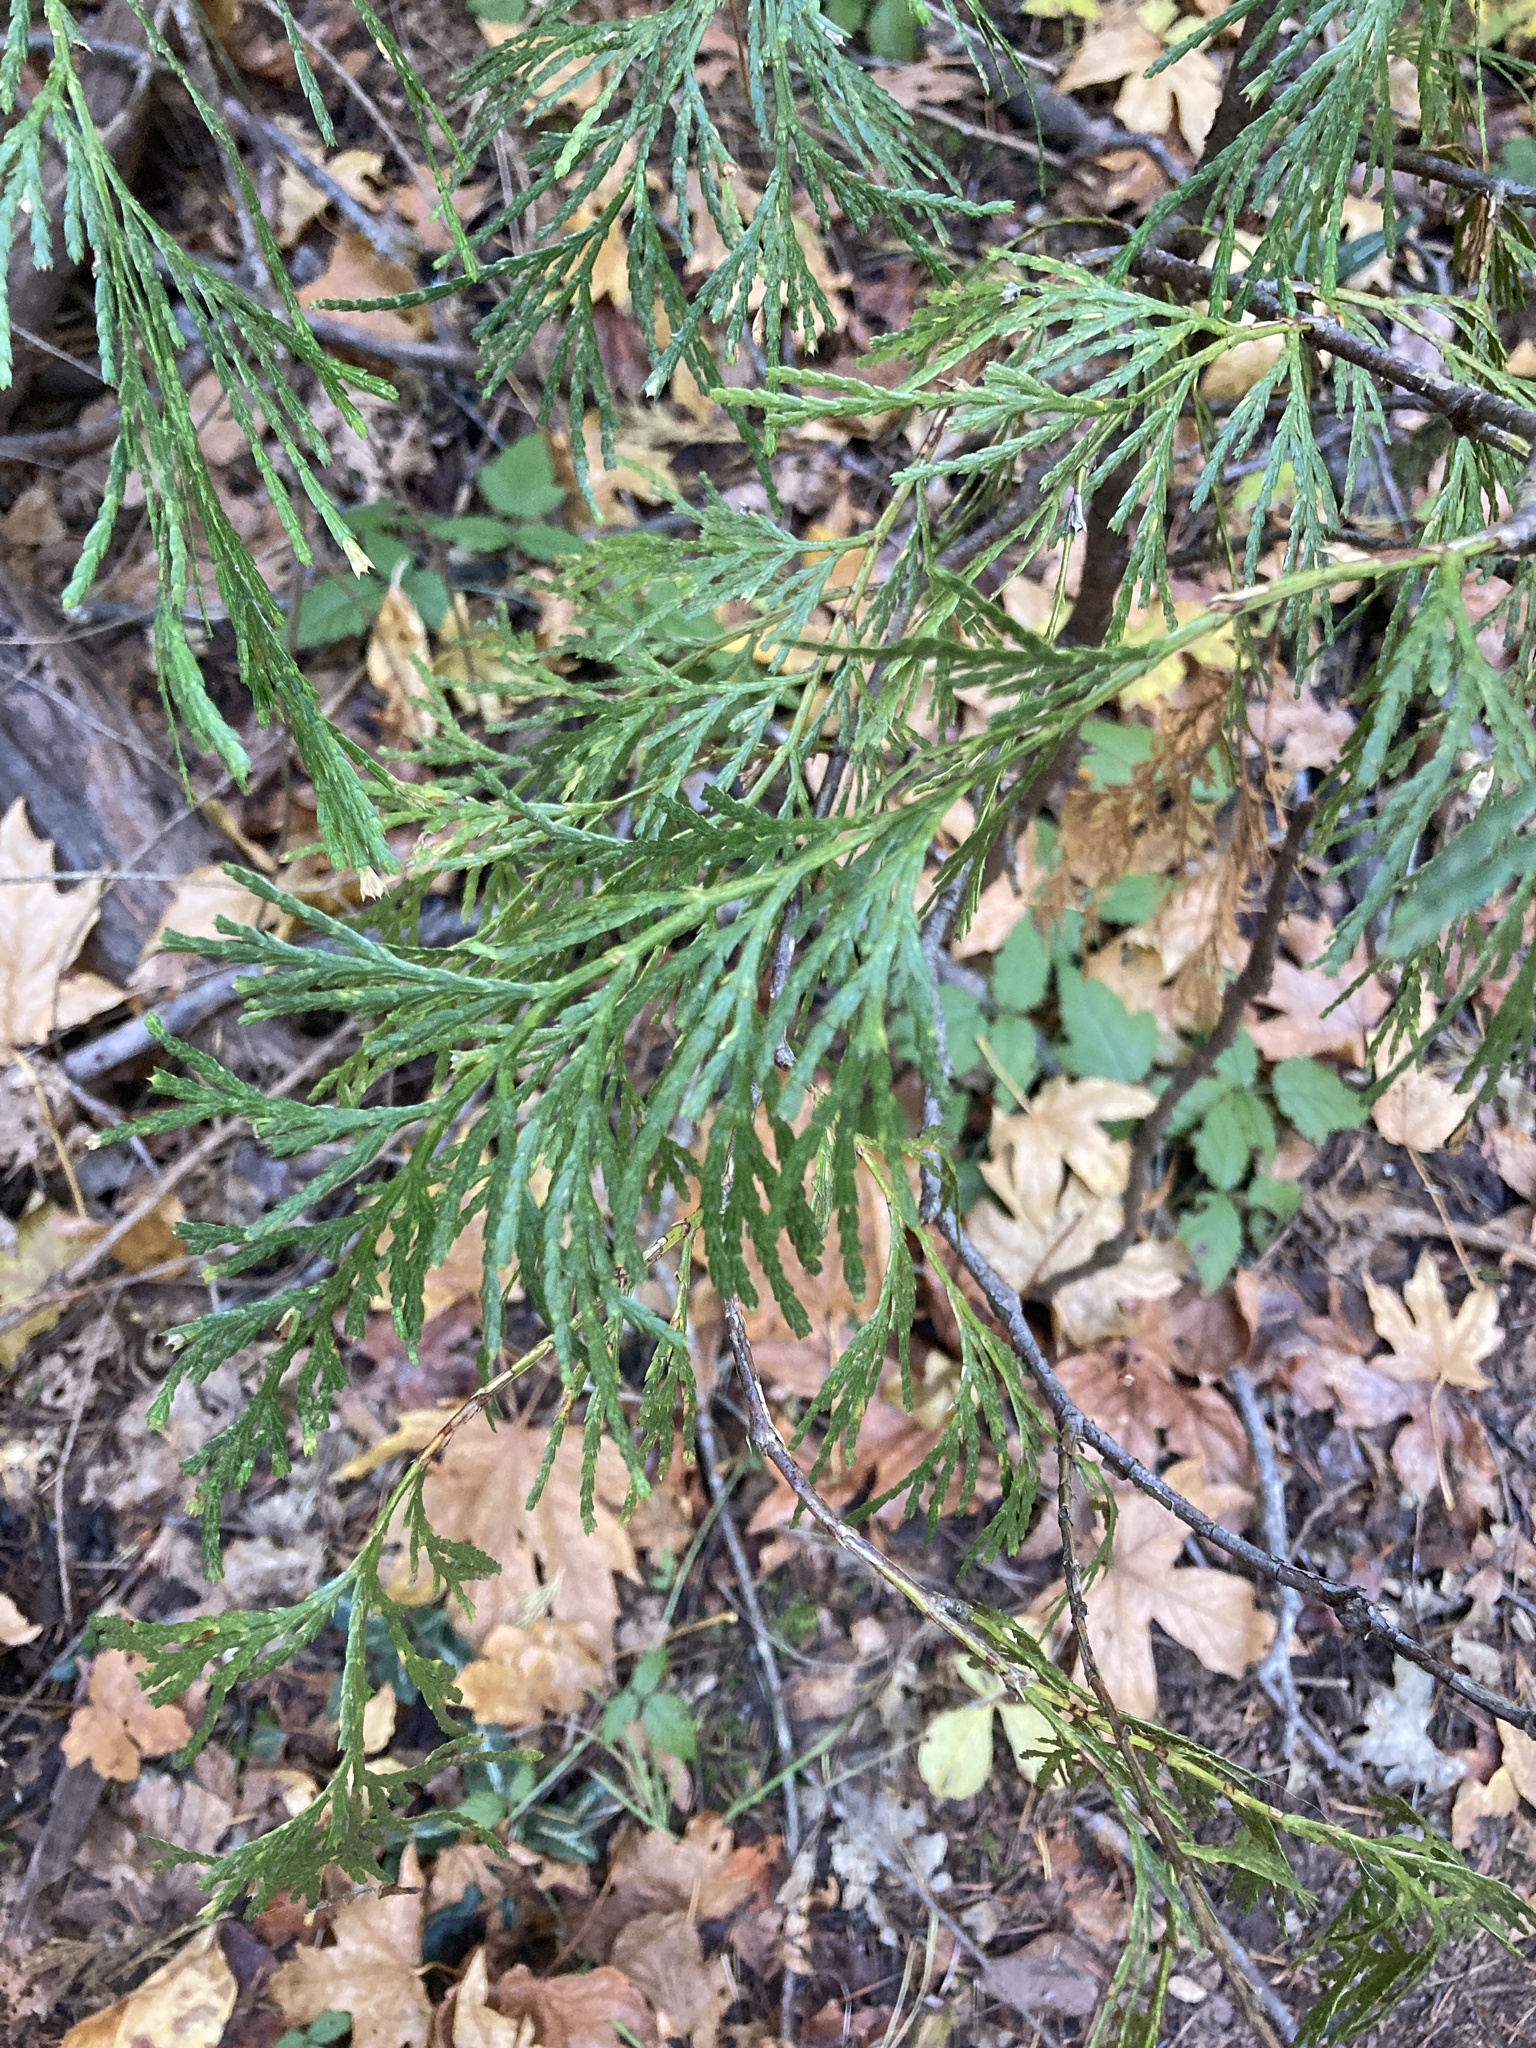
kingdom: Plantae
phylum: Tracheophyta
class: Pinopsida
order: Pinales
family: Cupressaceae
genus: Calocedrus
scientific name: Calocedrus decurrens
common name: Californian incense-cedar
